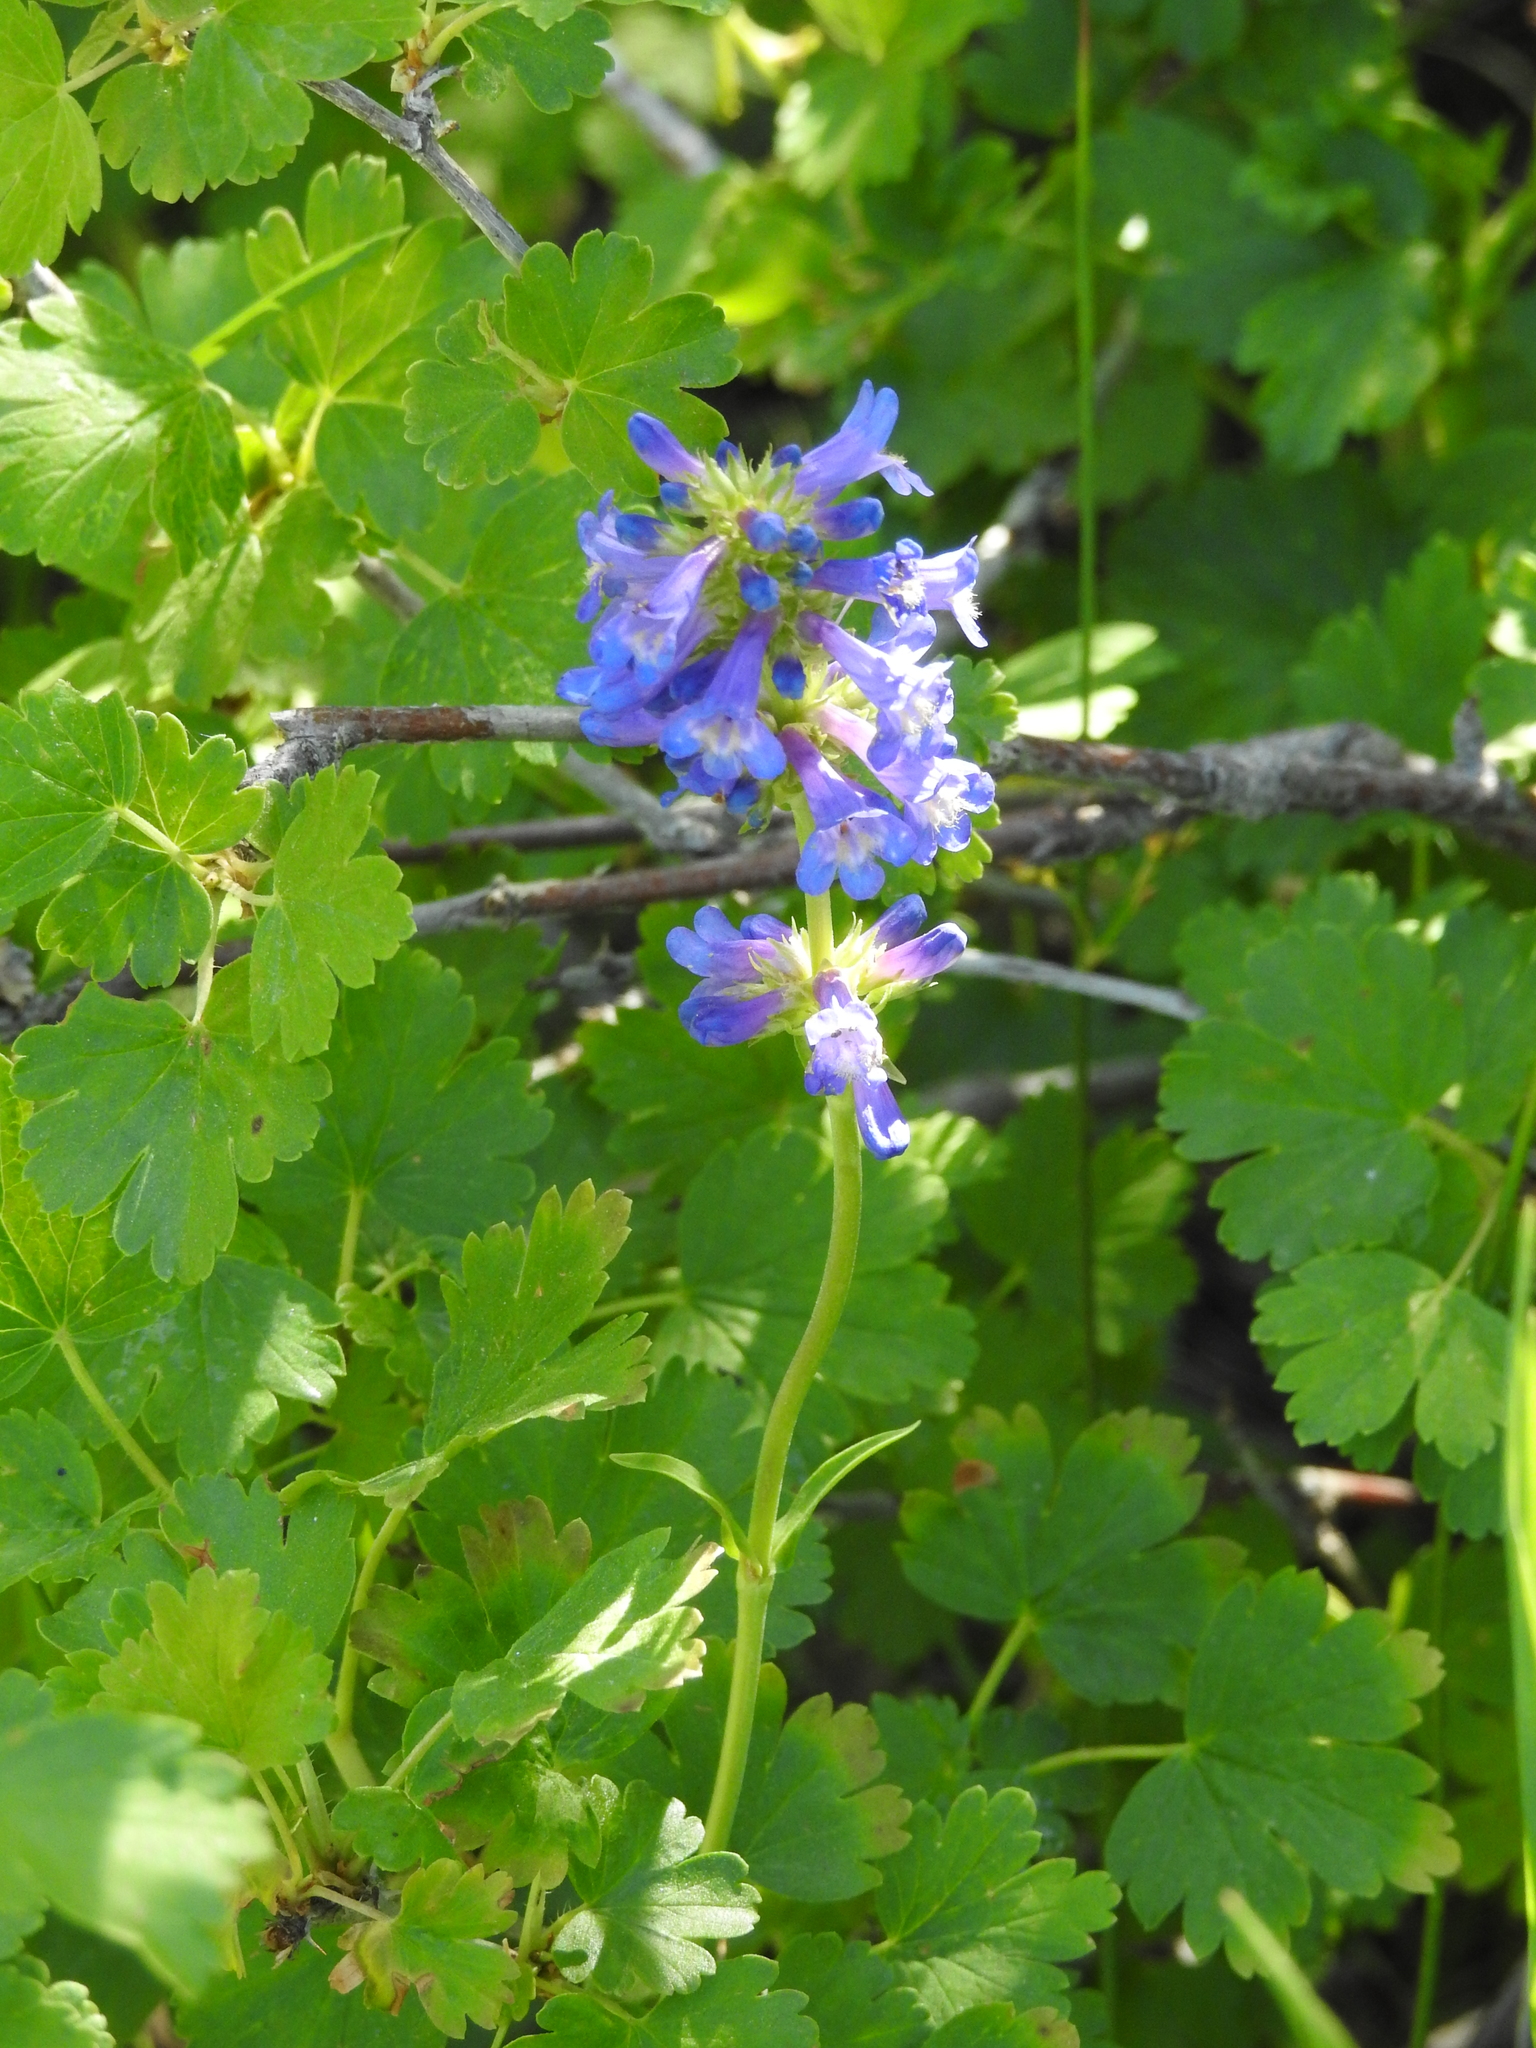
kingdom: Plantae
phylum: Tracheophyta
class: Magnoliopsida
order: Lamiales
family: Plantaginaceae
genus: Penstemon
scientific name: Penstemon rydbergii
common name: Rydberg's beardtongue
